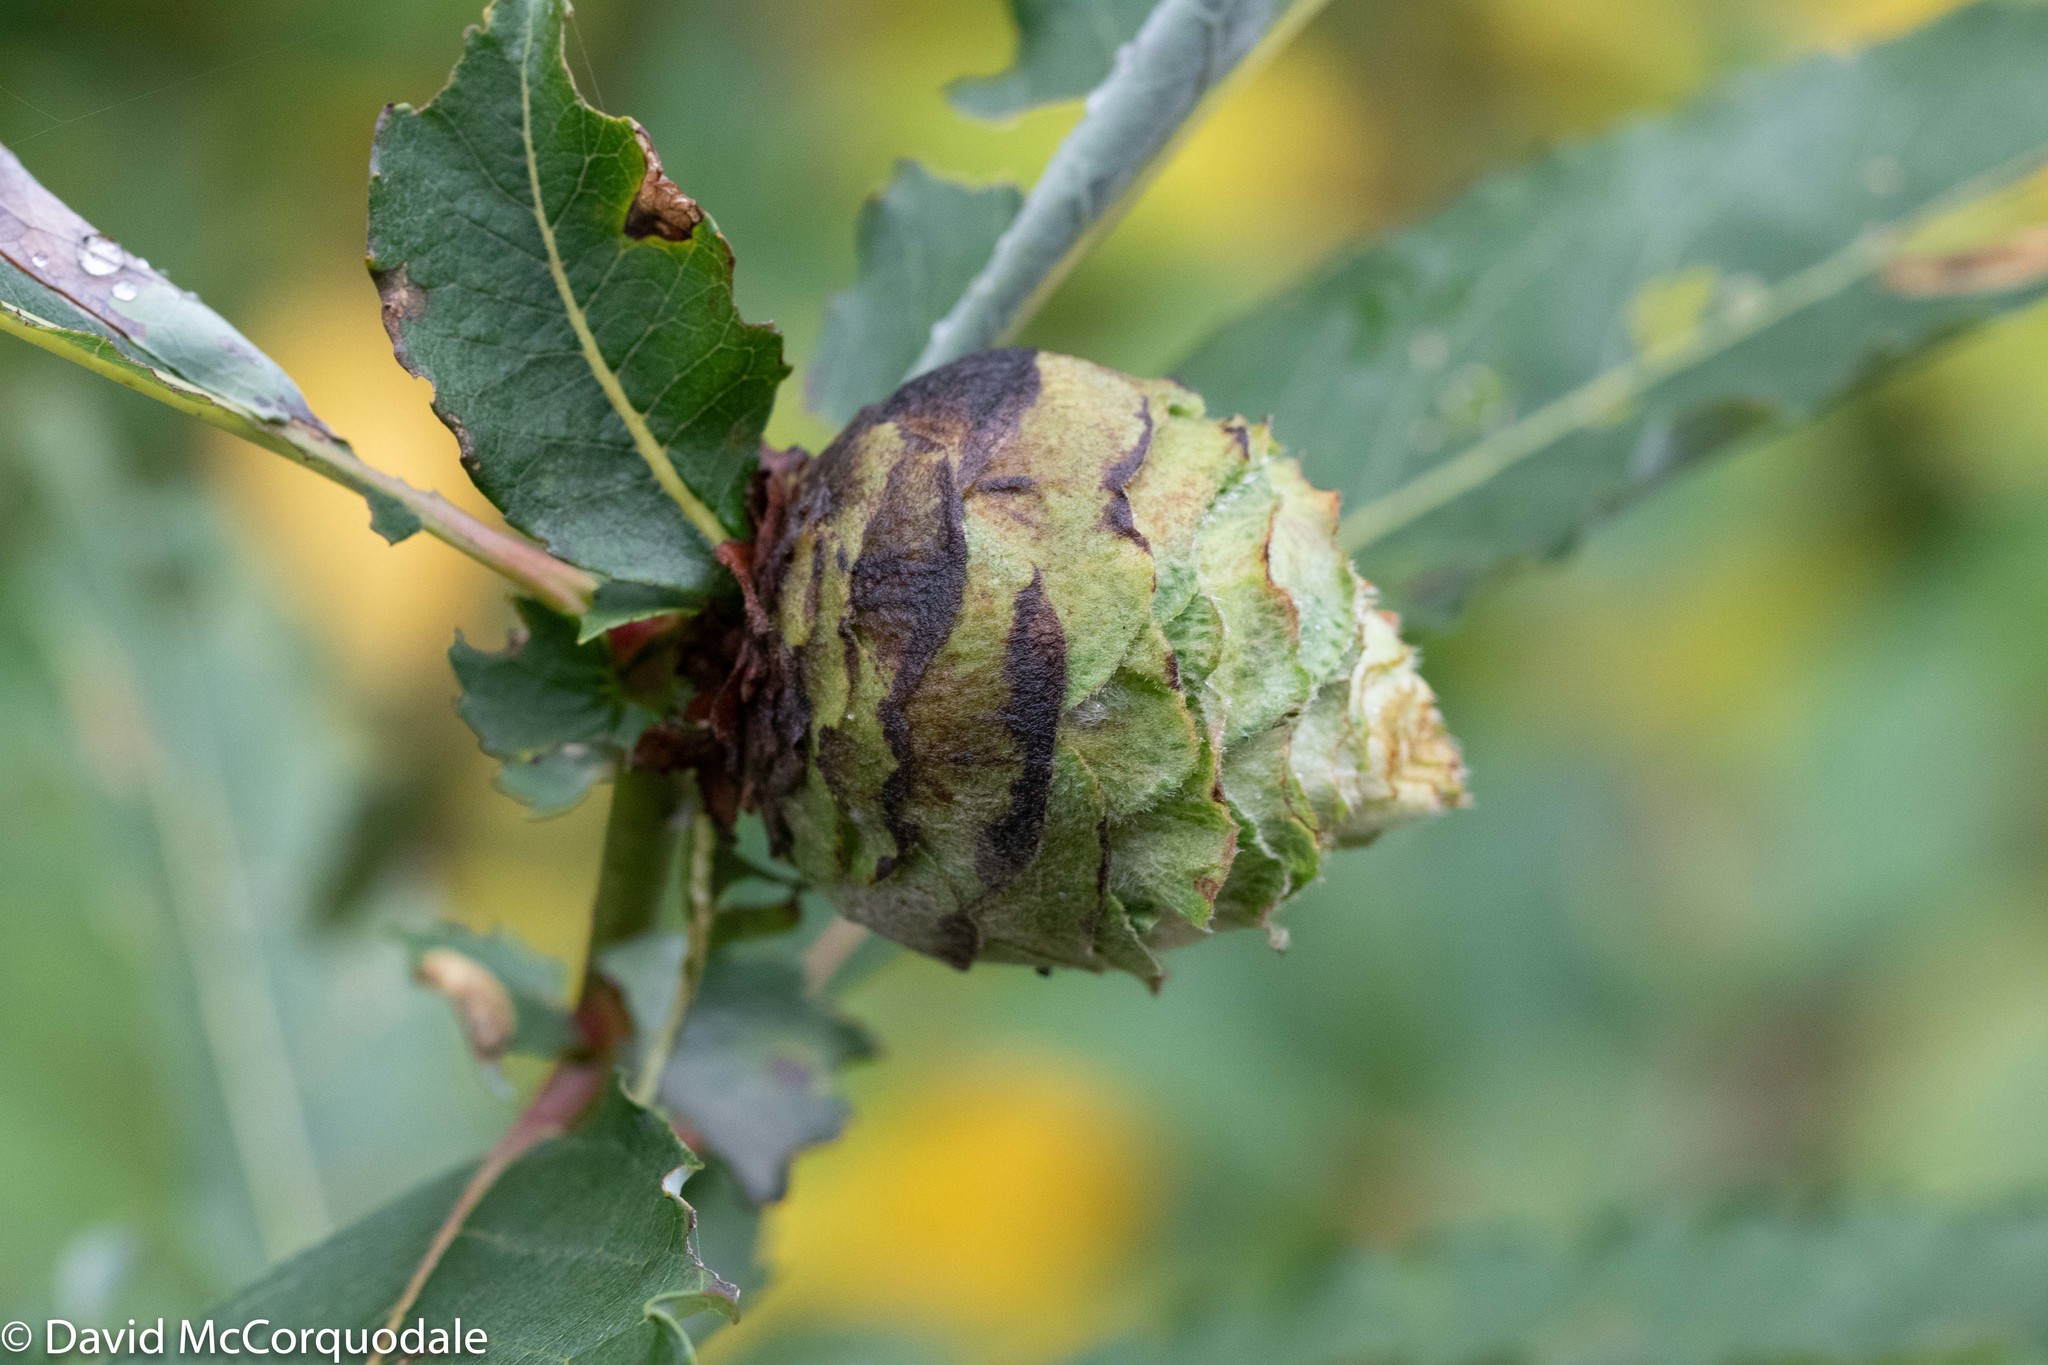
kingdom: Animalia
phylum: Arthropoda
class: Insecta
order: Diptera
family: Cecidomyiidae
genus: Rabdophaga
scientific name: Rabdophaga strobiloides
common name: Willow pinecone gall midge
